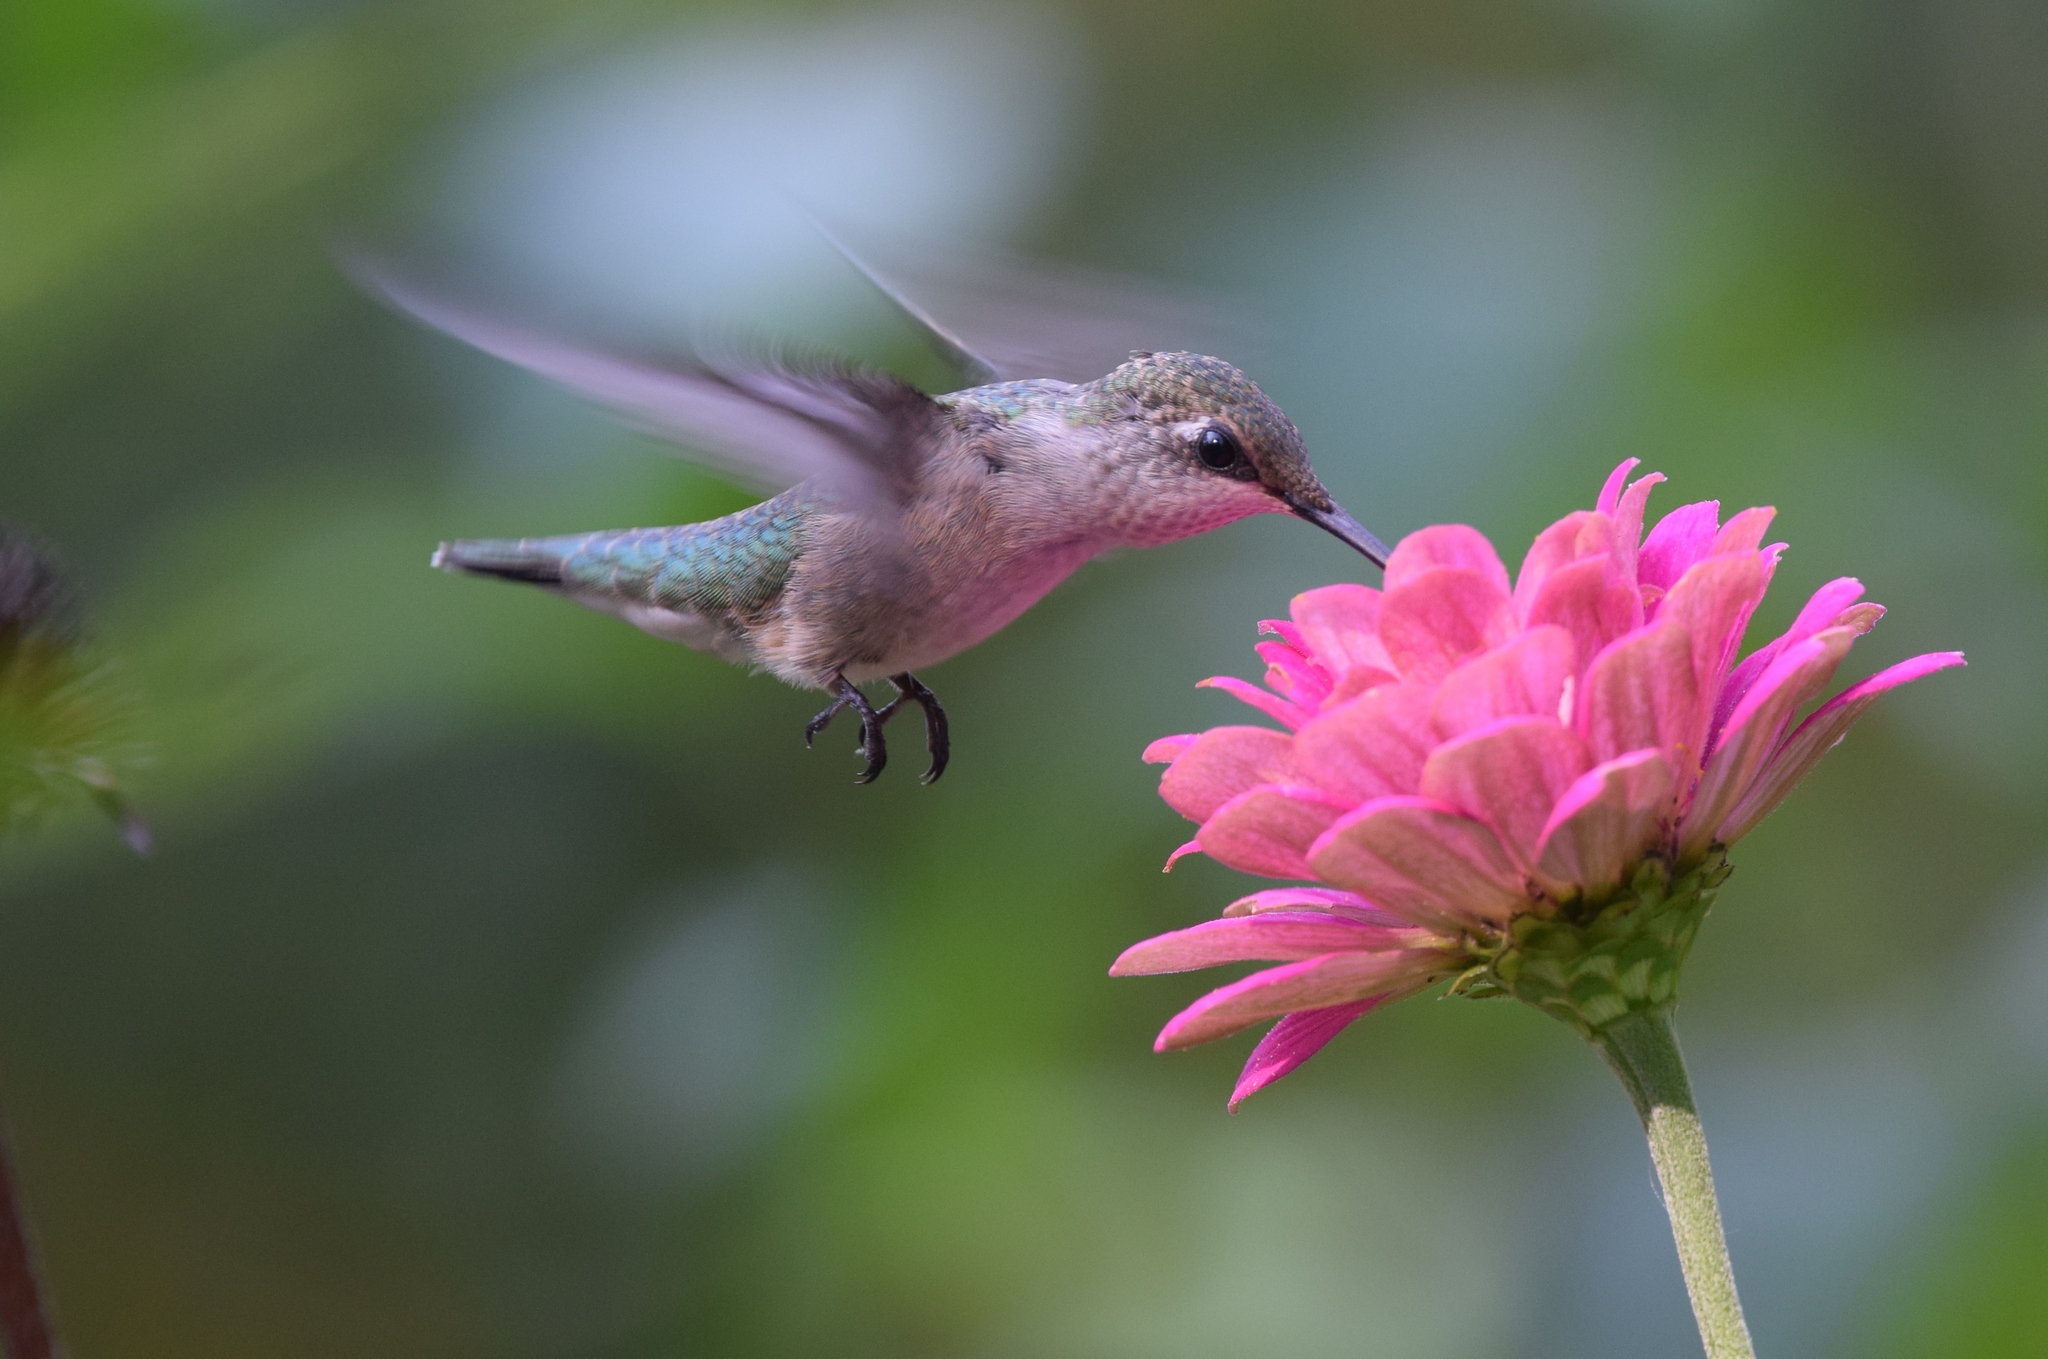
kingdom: Animalia
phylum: Chordata
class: Aves
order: Apodiformes
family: Trochilidae
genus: Archilochus
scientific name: Archilochus colubris
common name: Ruby-throated hummingbird
